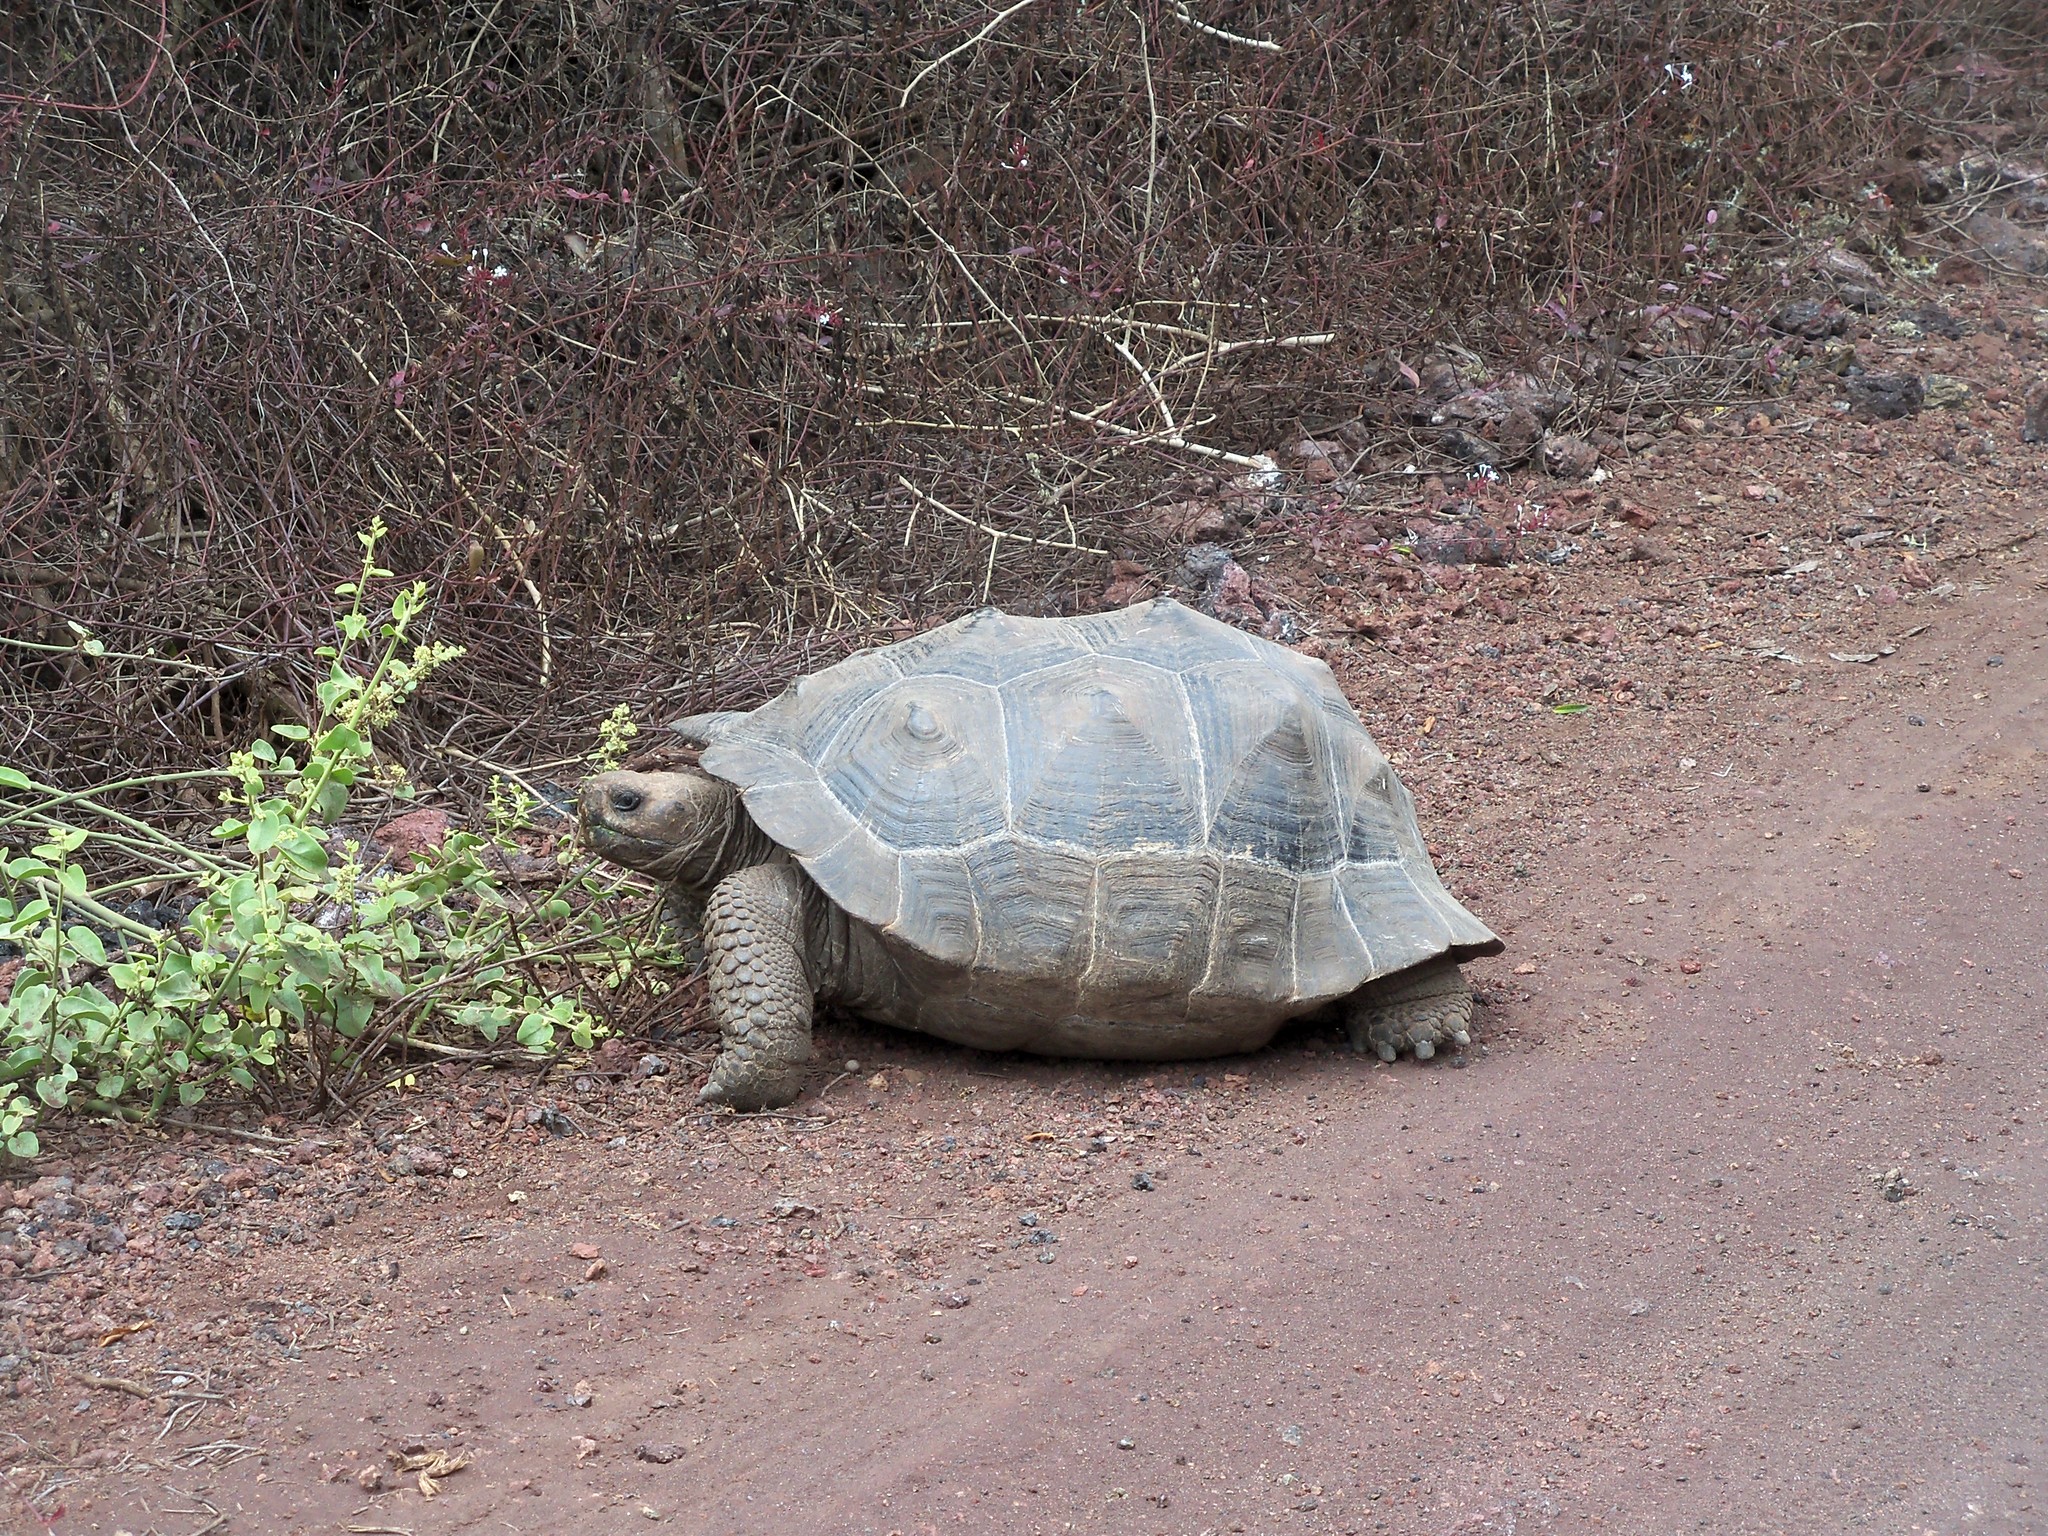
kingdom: Animalia
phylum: Chordata
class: Testudines
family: Testudinidae
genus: Chelonoidis
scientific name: Chelonoidis guntheri
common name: Sierra negra giant tortoise
